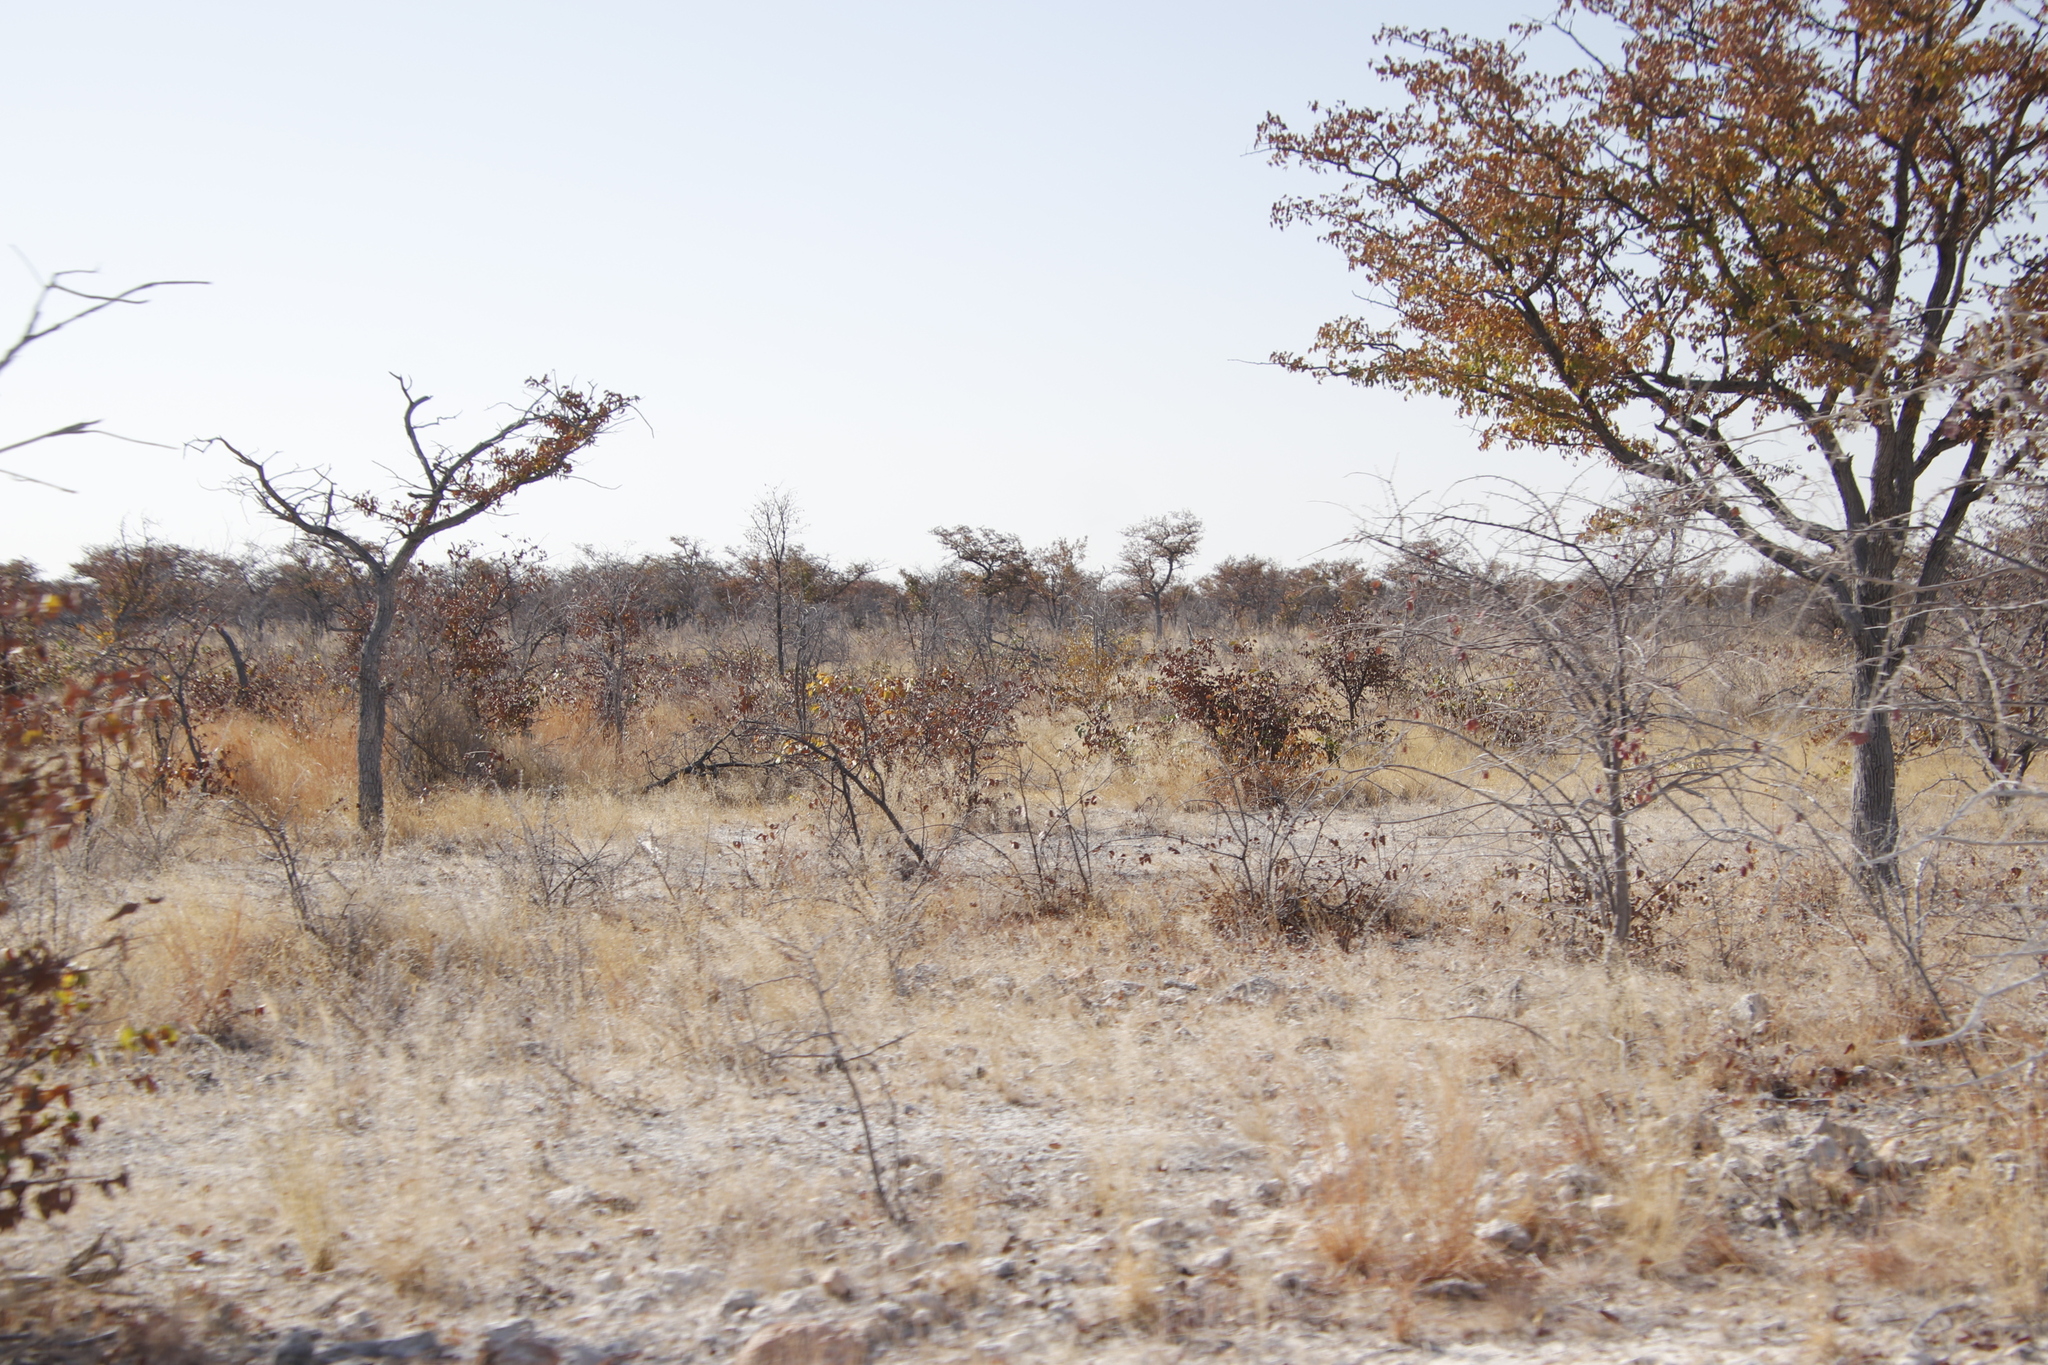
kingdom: Plantae
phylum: Tracheophyta
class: Magnoliopsida
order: Fabales
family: Fabaceae
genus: Colophospermum
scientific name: Colophospermum mopane
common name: Mopane
